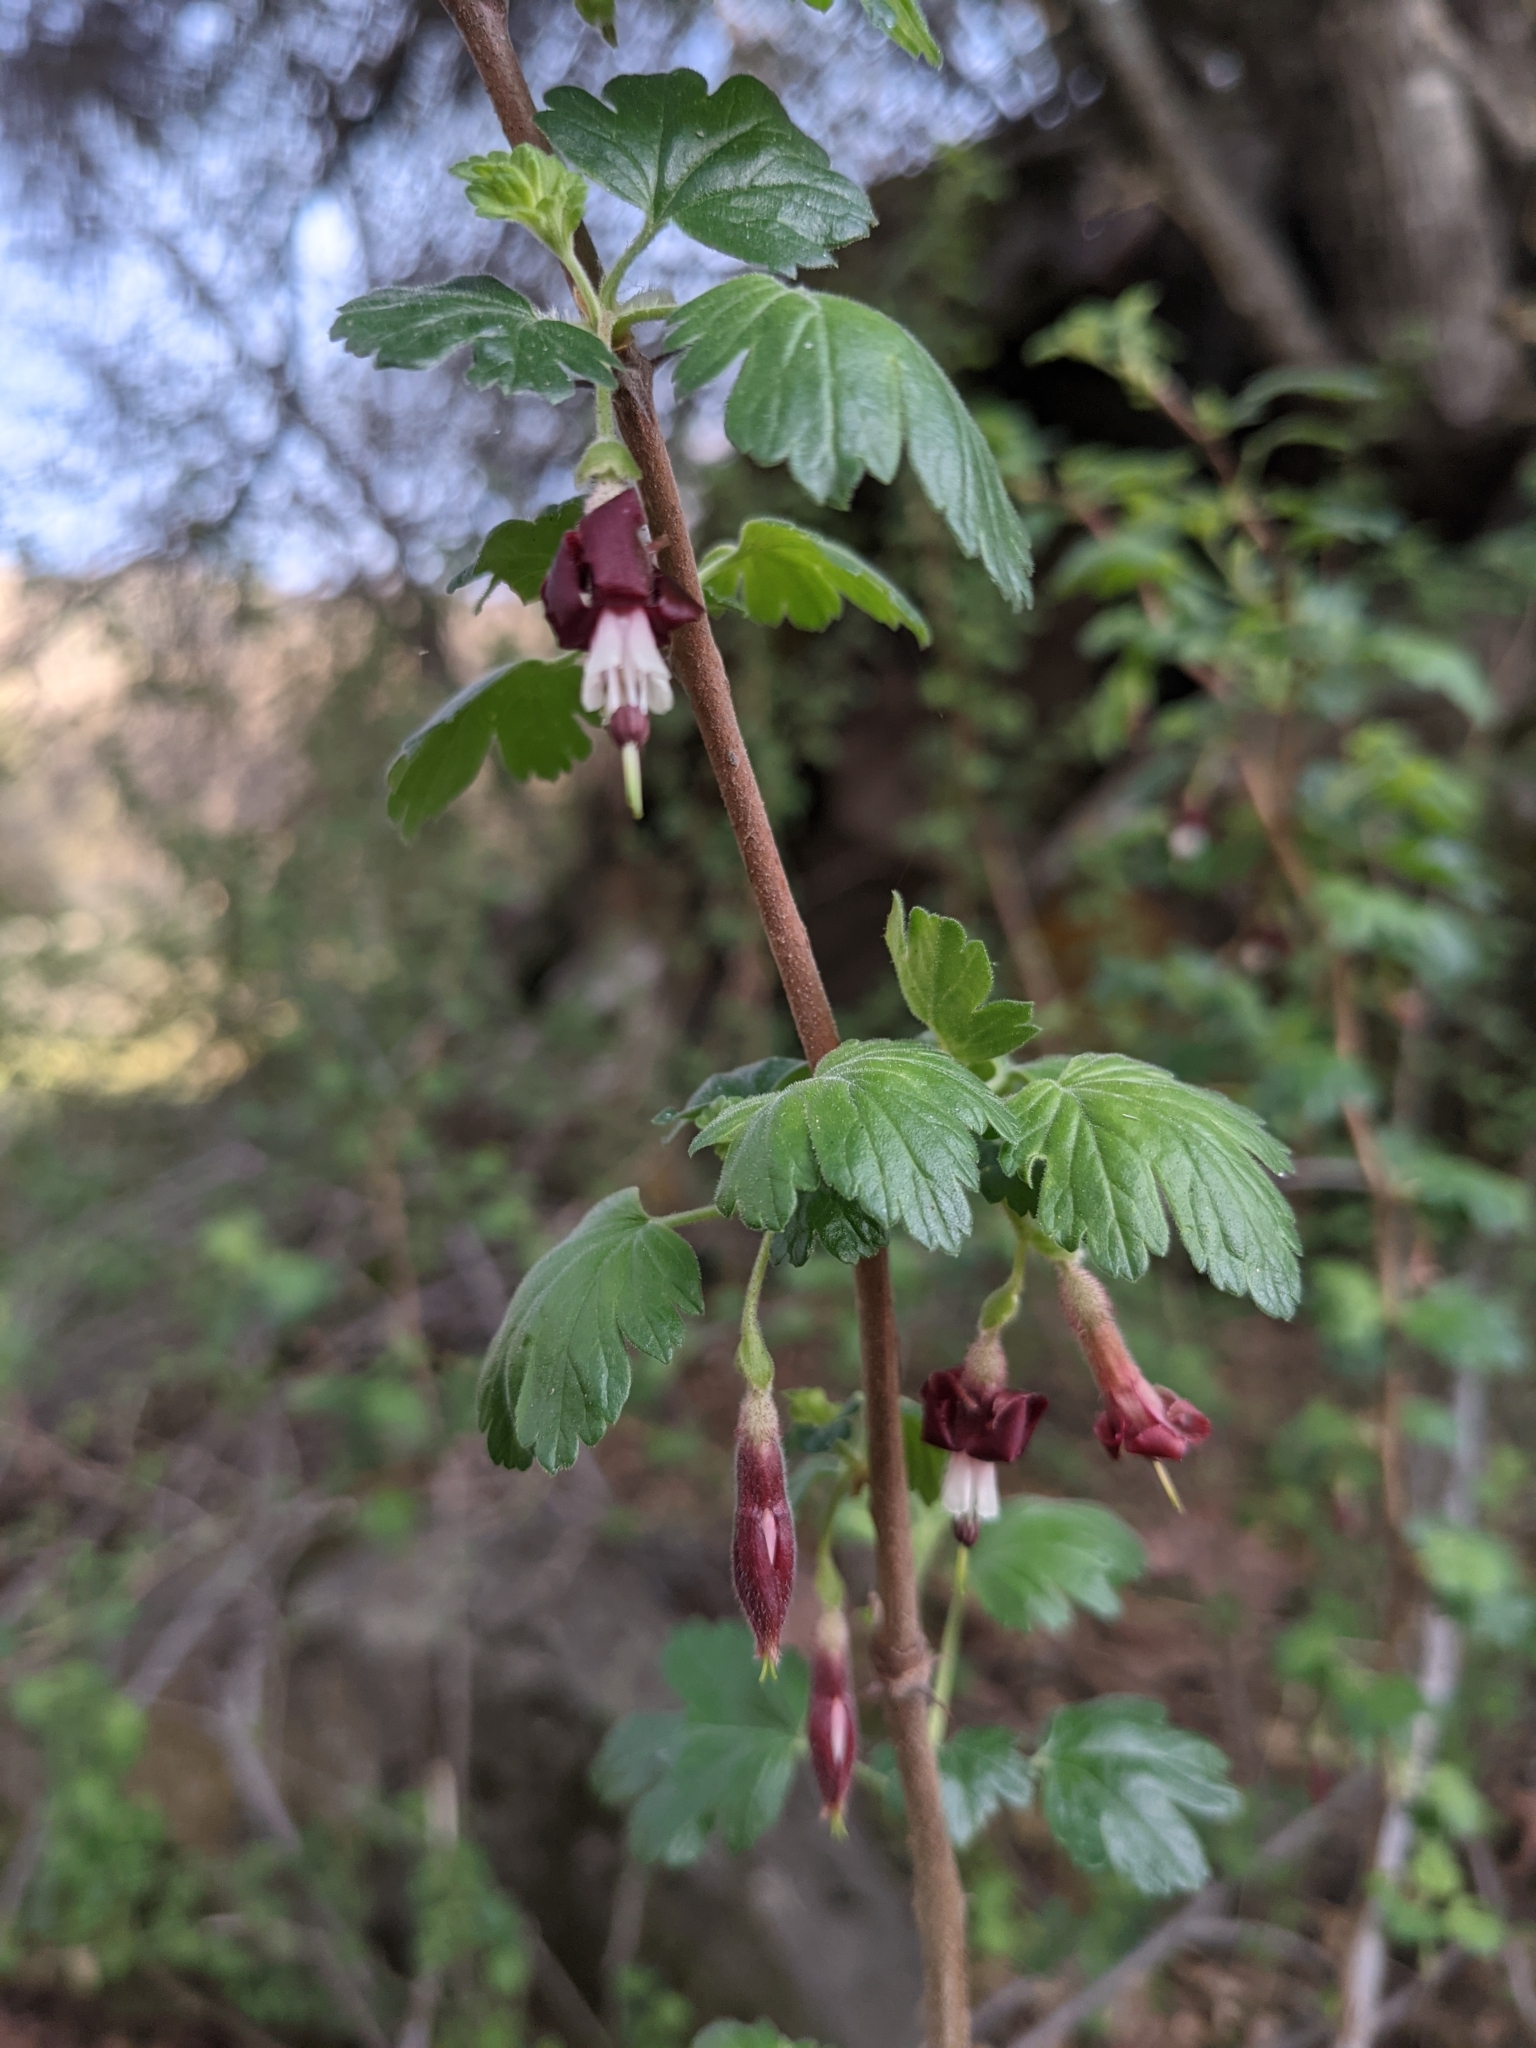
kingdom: Plantae
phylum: Tracheophyta
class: Magnoliopsida
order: Saxifragales
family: Grossulariaceae
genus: Ribes
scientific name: Ribes roezlii
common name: Sierra gooseberry
